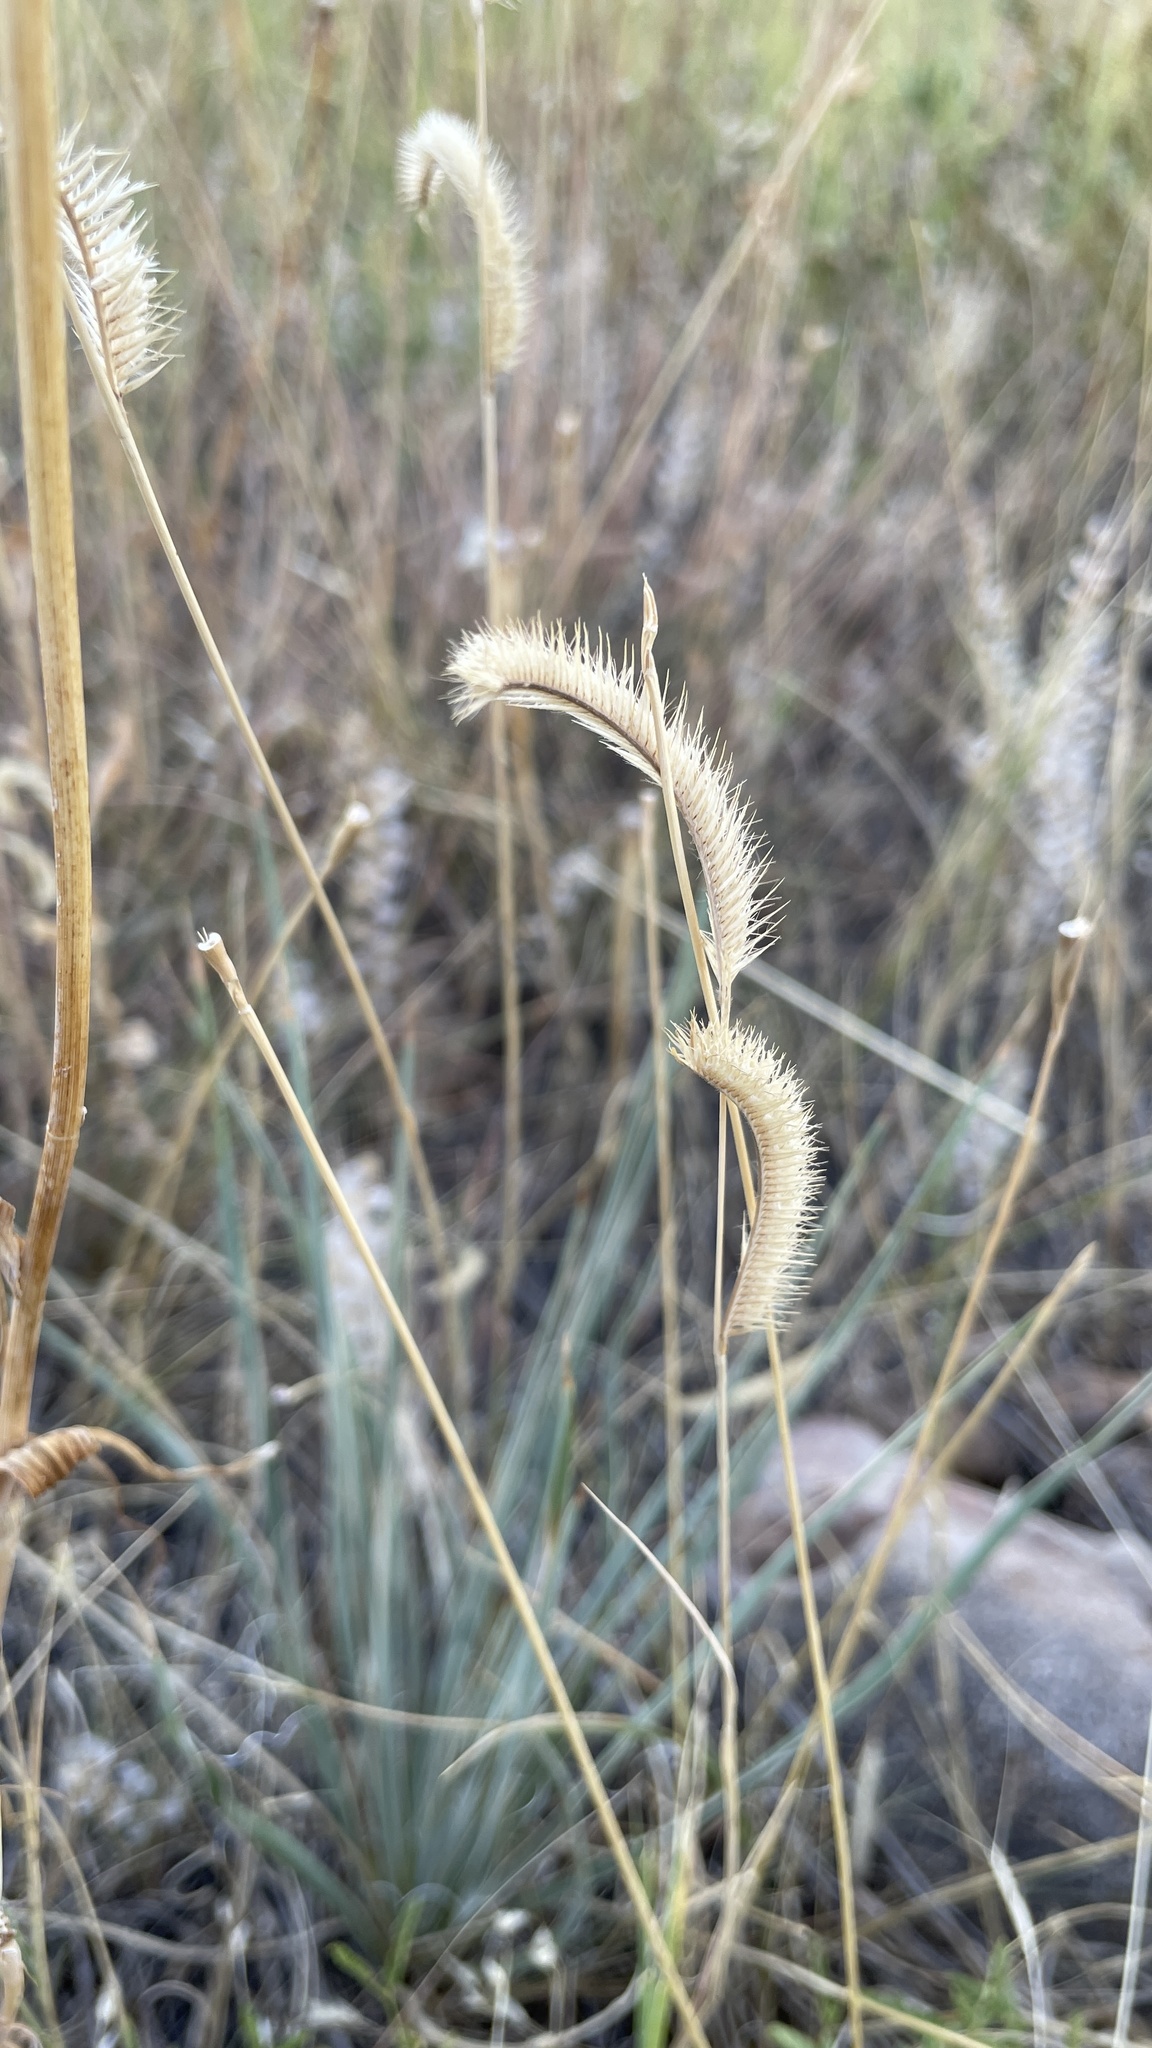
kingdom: Plantae
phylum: Tracheophyta
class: Liliopsida
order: Poales
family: Poaceae
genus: Bouteloua
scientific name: Bouteloua gracilis
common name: Blue grama
